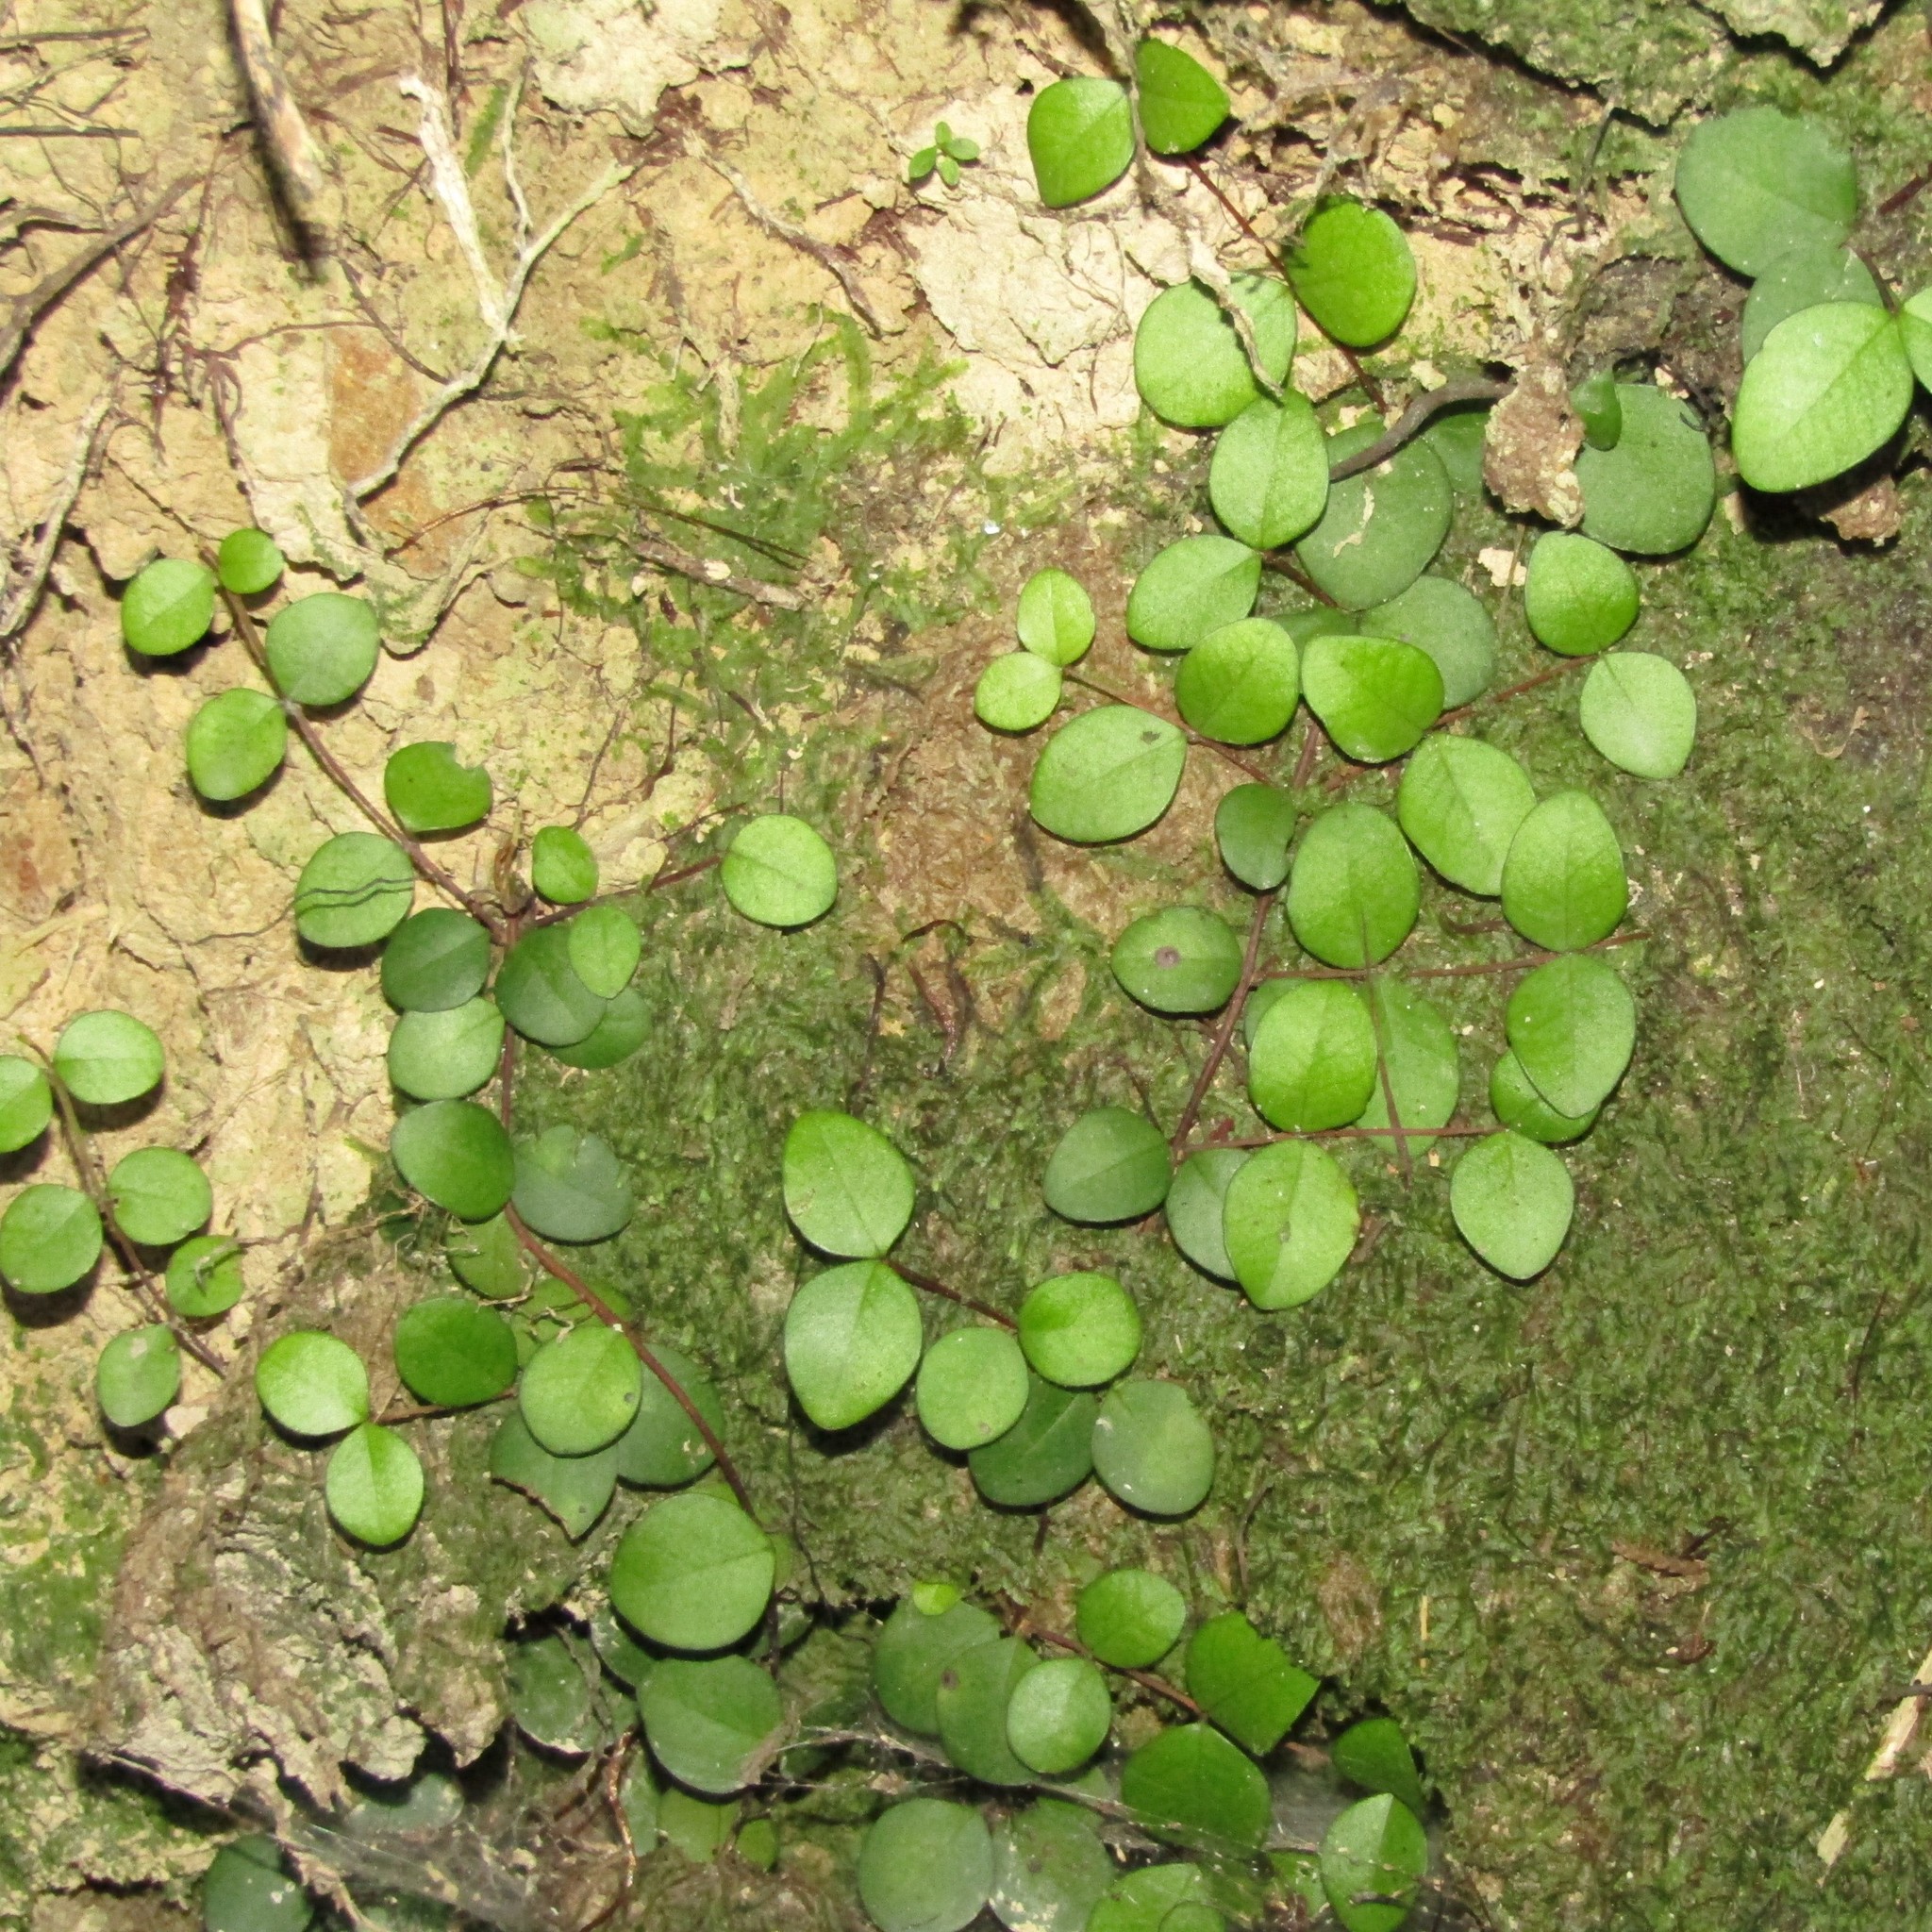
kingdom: Plantae
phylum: Tracheophyta
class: Magnoliopsida
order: Myrtales
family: Myrtaceae
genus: Metrosideros
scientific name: Metrosideros perforata
